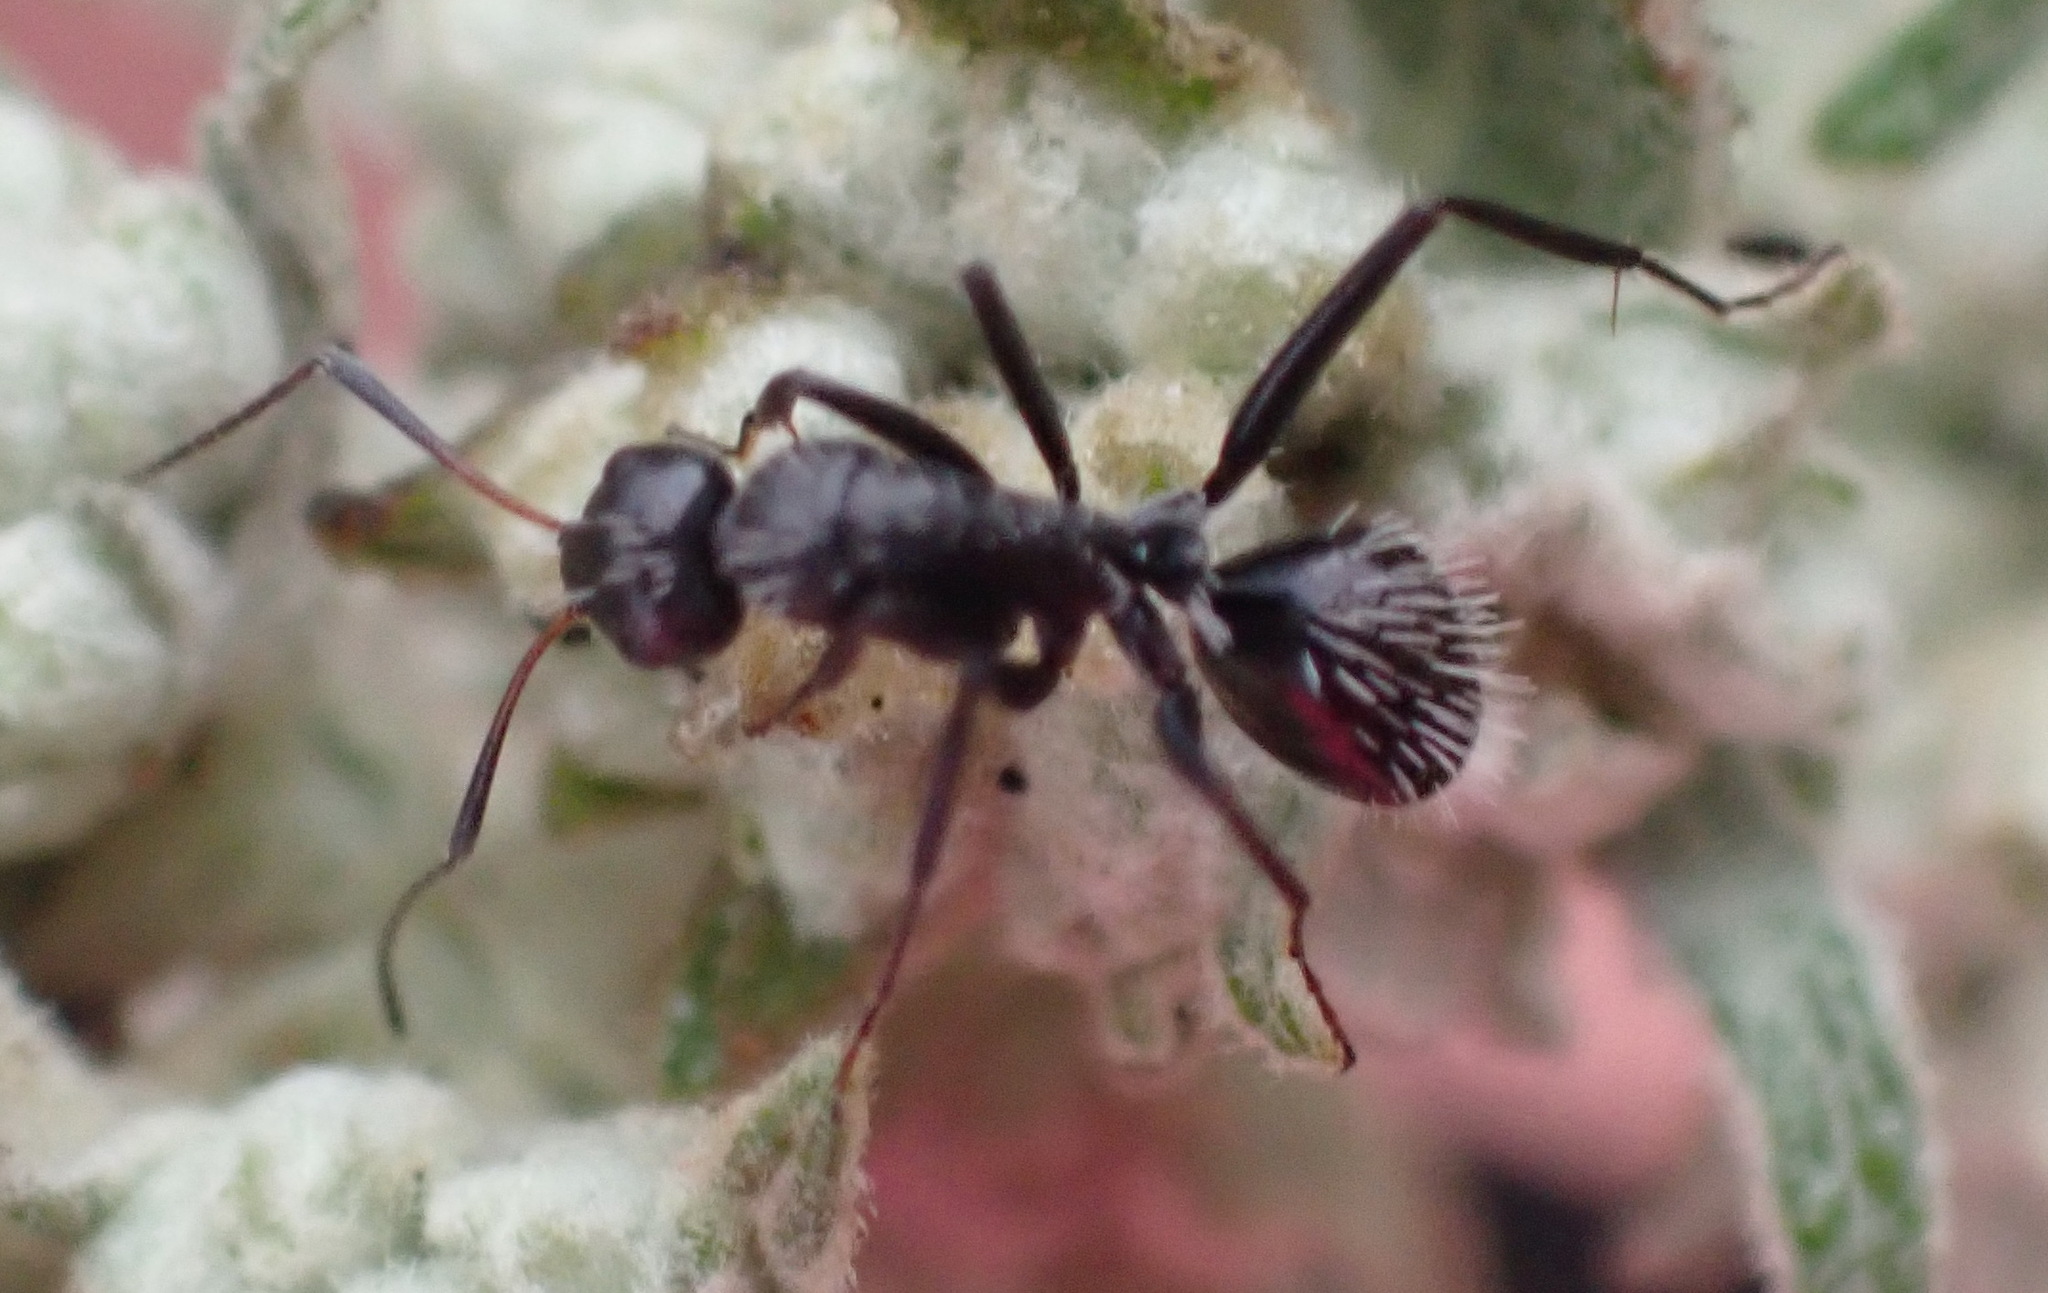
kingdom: Animalia
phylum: Arthropoda
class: Insecta
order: Hymenoptera
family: Formicidae
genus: Camponotus
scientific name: Camponotus niveosetosus
